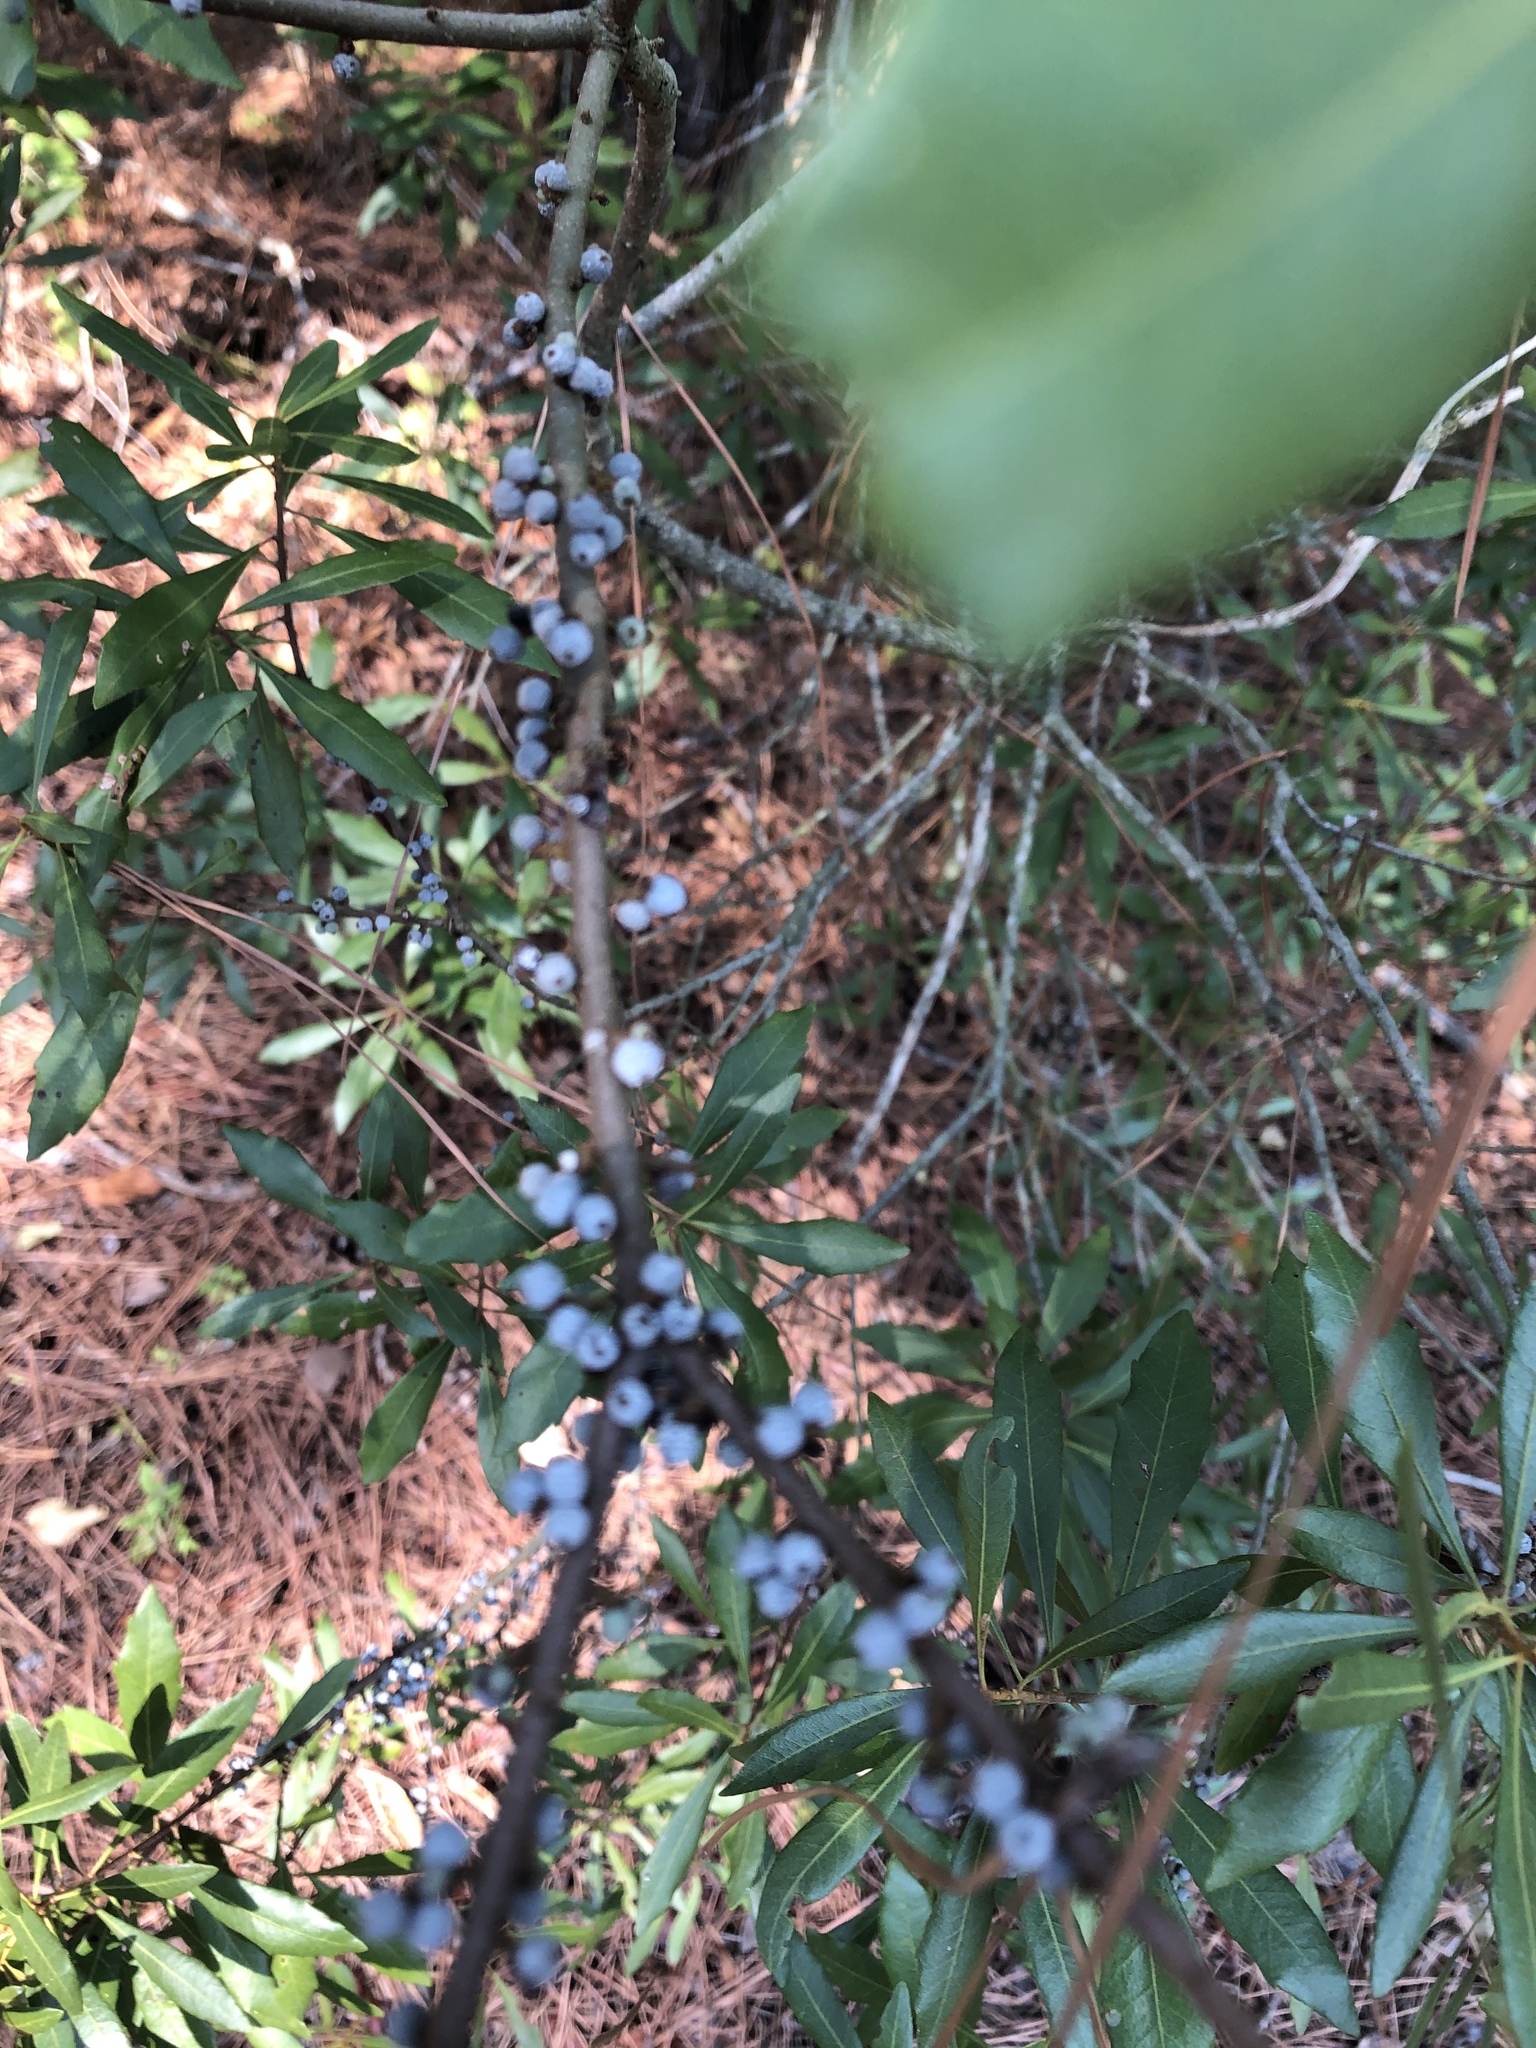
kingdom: Plantae
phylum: Tracheophyta
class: Magnoliopsida
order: Fagales
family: Myricaceae
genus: Morella
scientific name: Morella cerifera
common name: Wax myrtle
